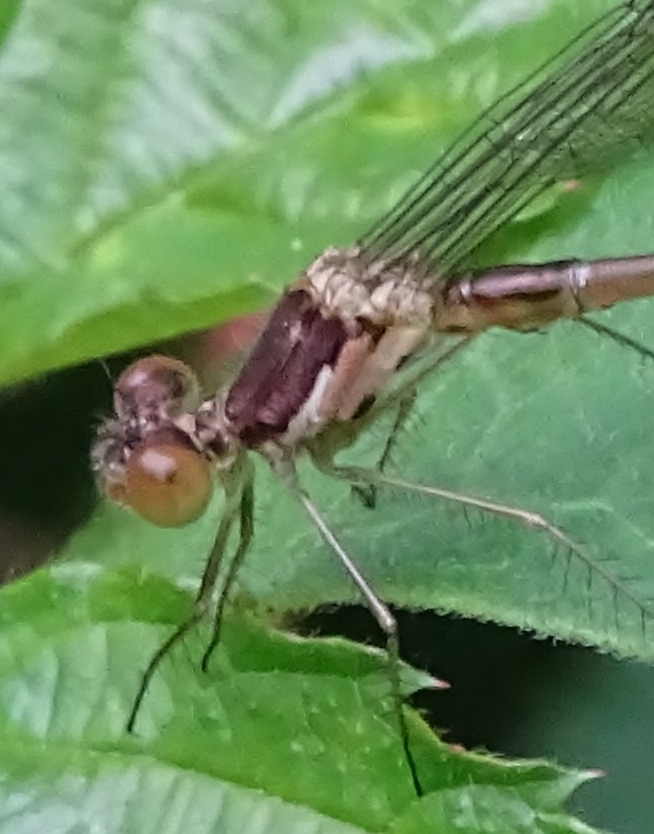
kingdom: Animalia
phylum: Arthropoda
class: Insecta
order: Odonata
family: Lestidae
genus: Lestes
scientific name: Lestes congener
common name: Spotted spreadwing
